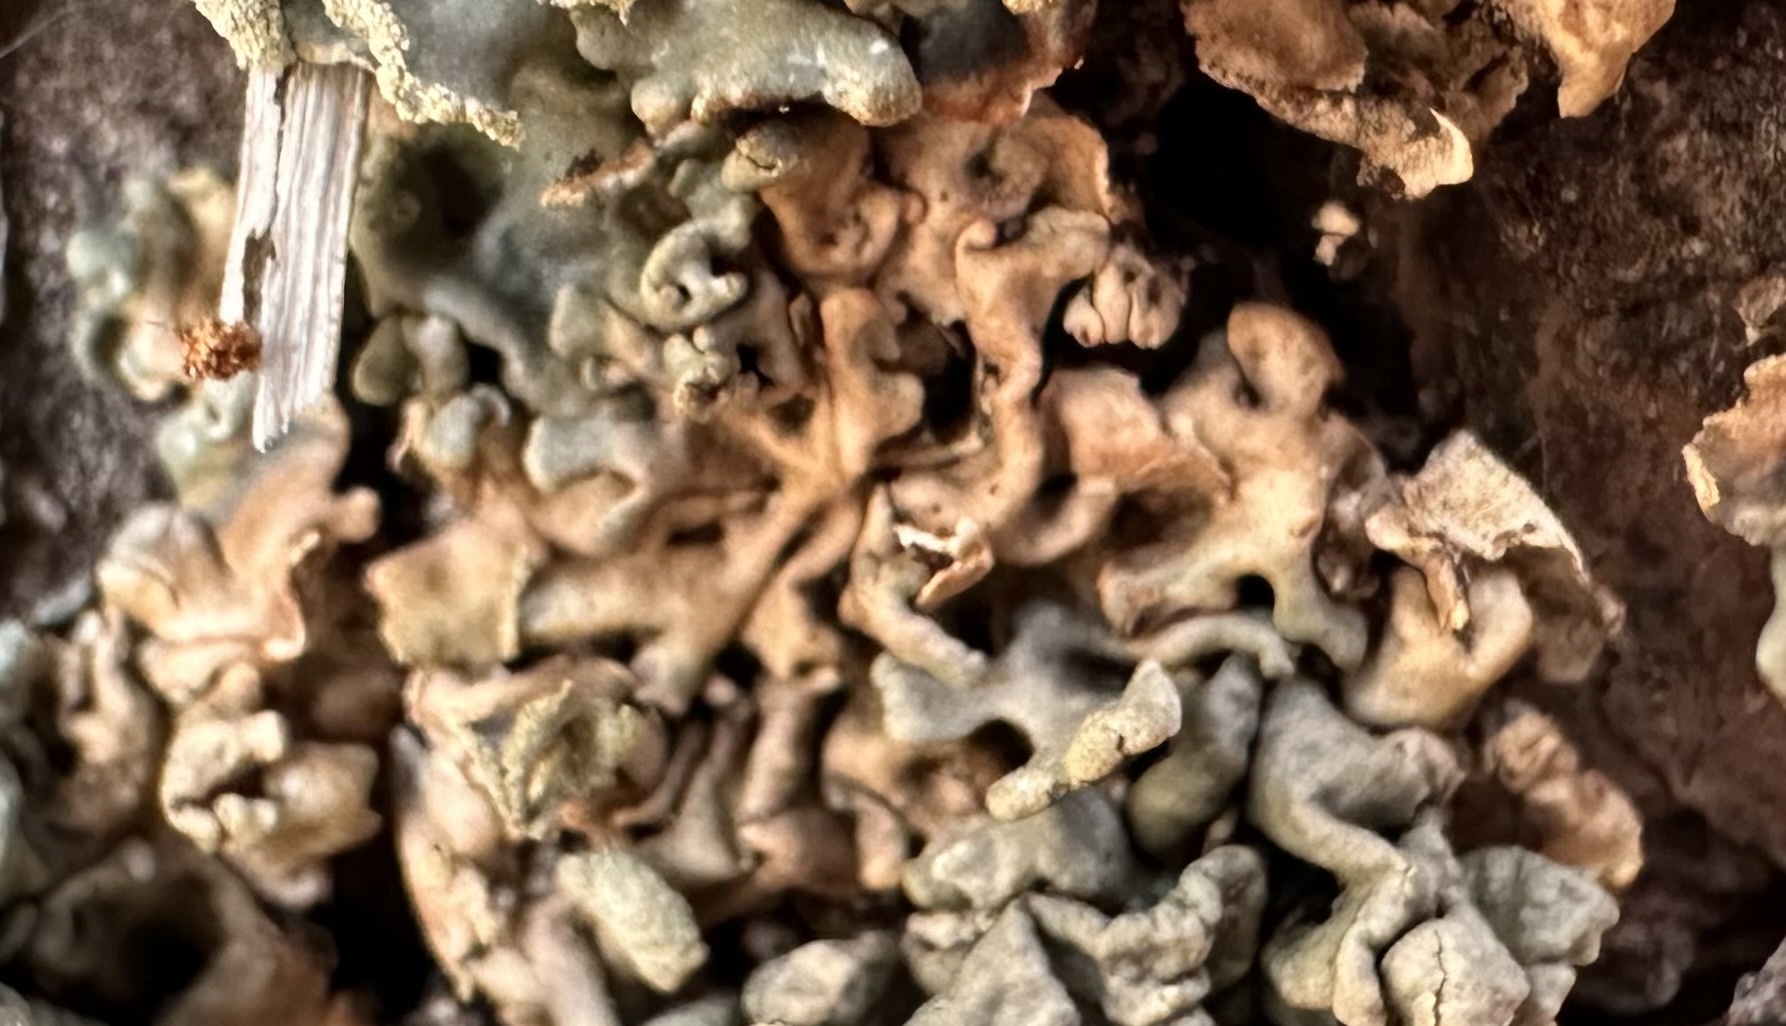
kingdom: Fungi
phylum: Ascomycota
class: Lecanoromycetes
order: Lecanorales
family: Parmeliaceae
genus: Hypogymnia
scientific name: Hypogymnia physodes
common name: Dark crottle
